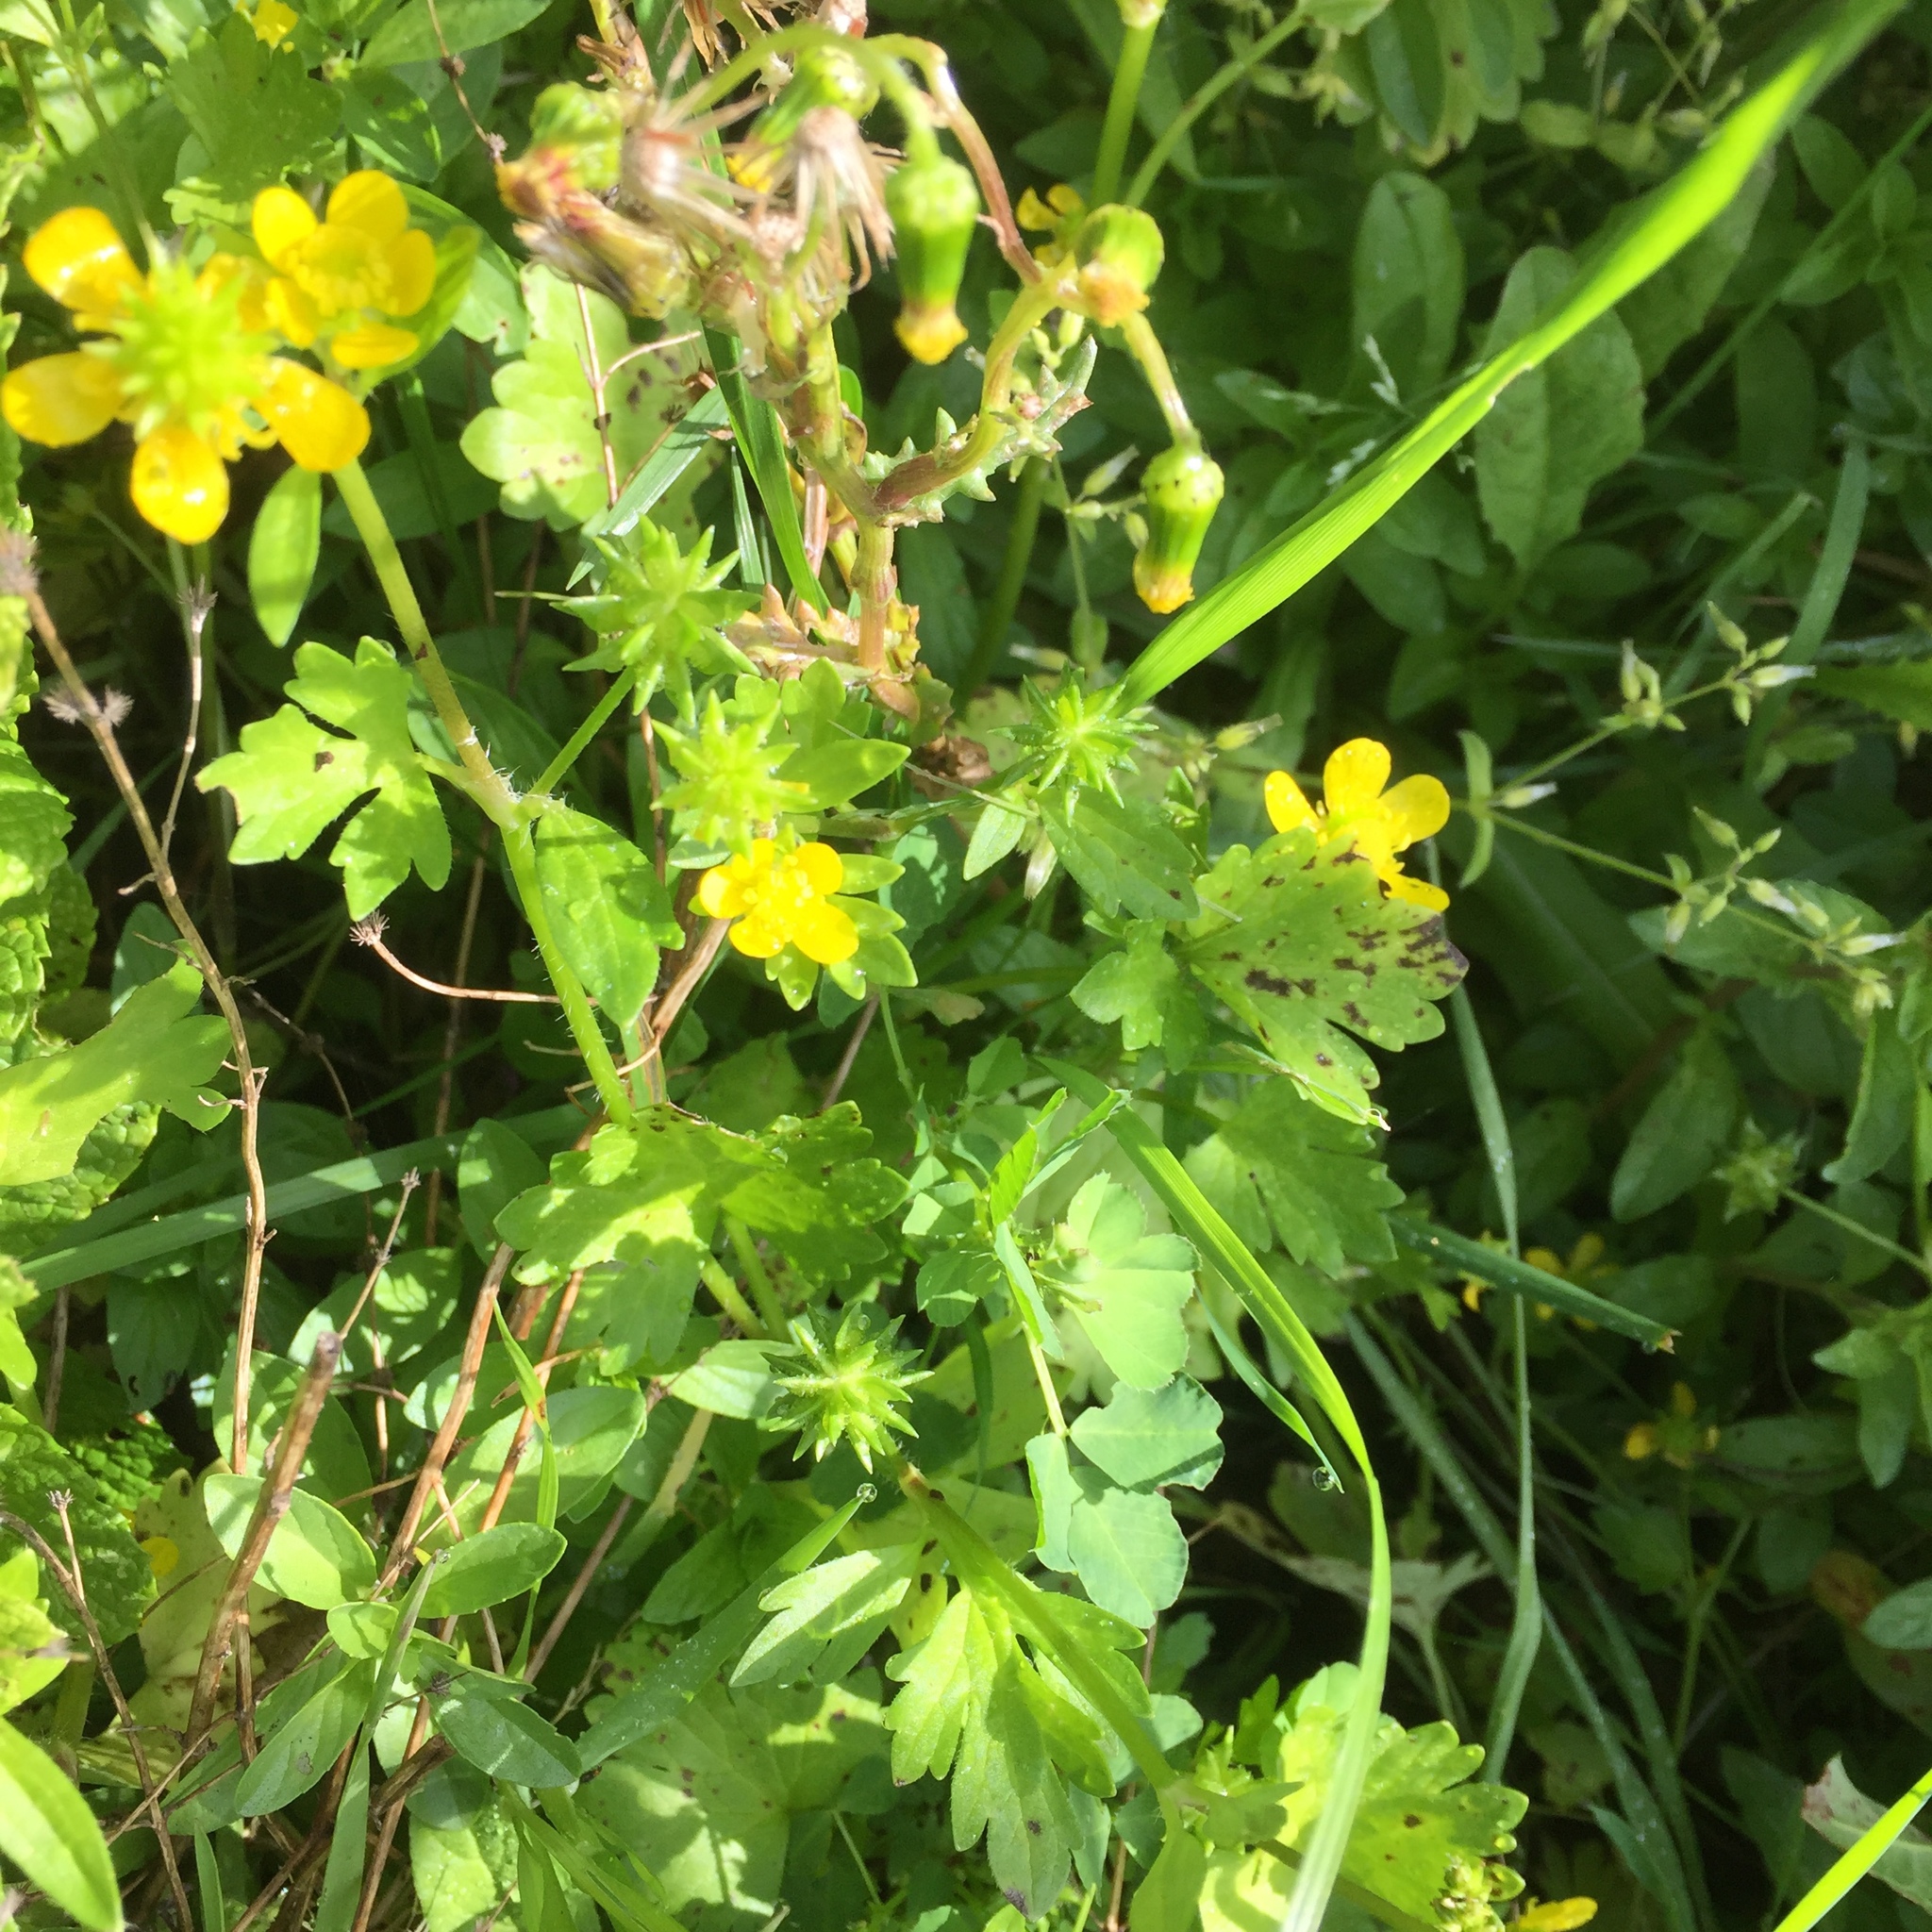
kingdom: Plantae
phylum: Tracheophyta
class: Magnoliopsida
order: Ranunculales
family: Ranunculaceae
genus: Ranunculus
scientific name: Ranunculus muricatus
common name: Rough-fruited buttercup
